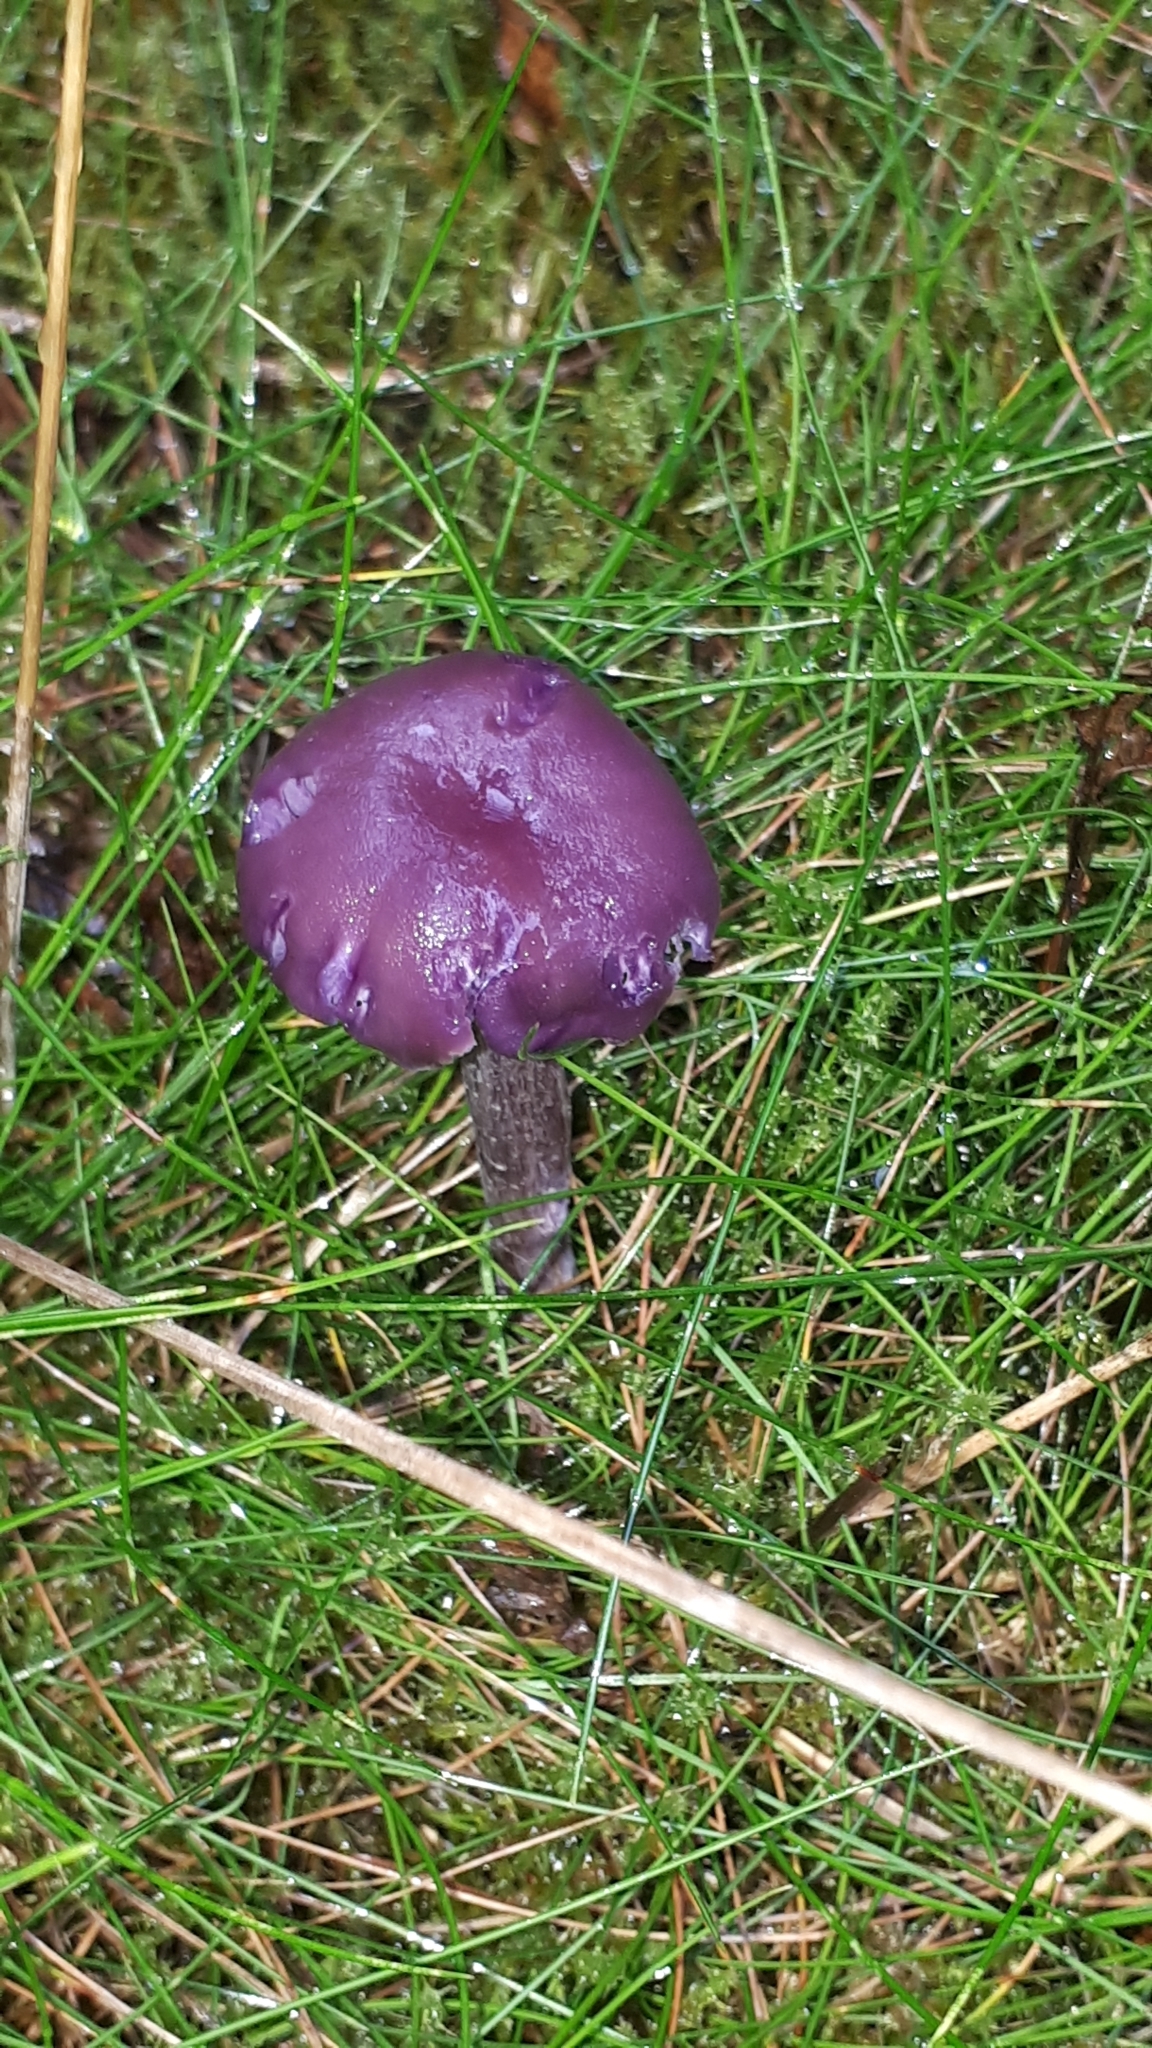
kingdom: Fungi
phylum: Basidiomycota
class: Agaricomycetes
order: Agaricales
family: Hydnangiaceae
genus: Laccaria
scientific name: Laccaria amethystina
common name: Amethyst deceiver
